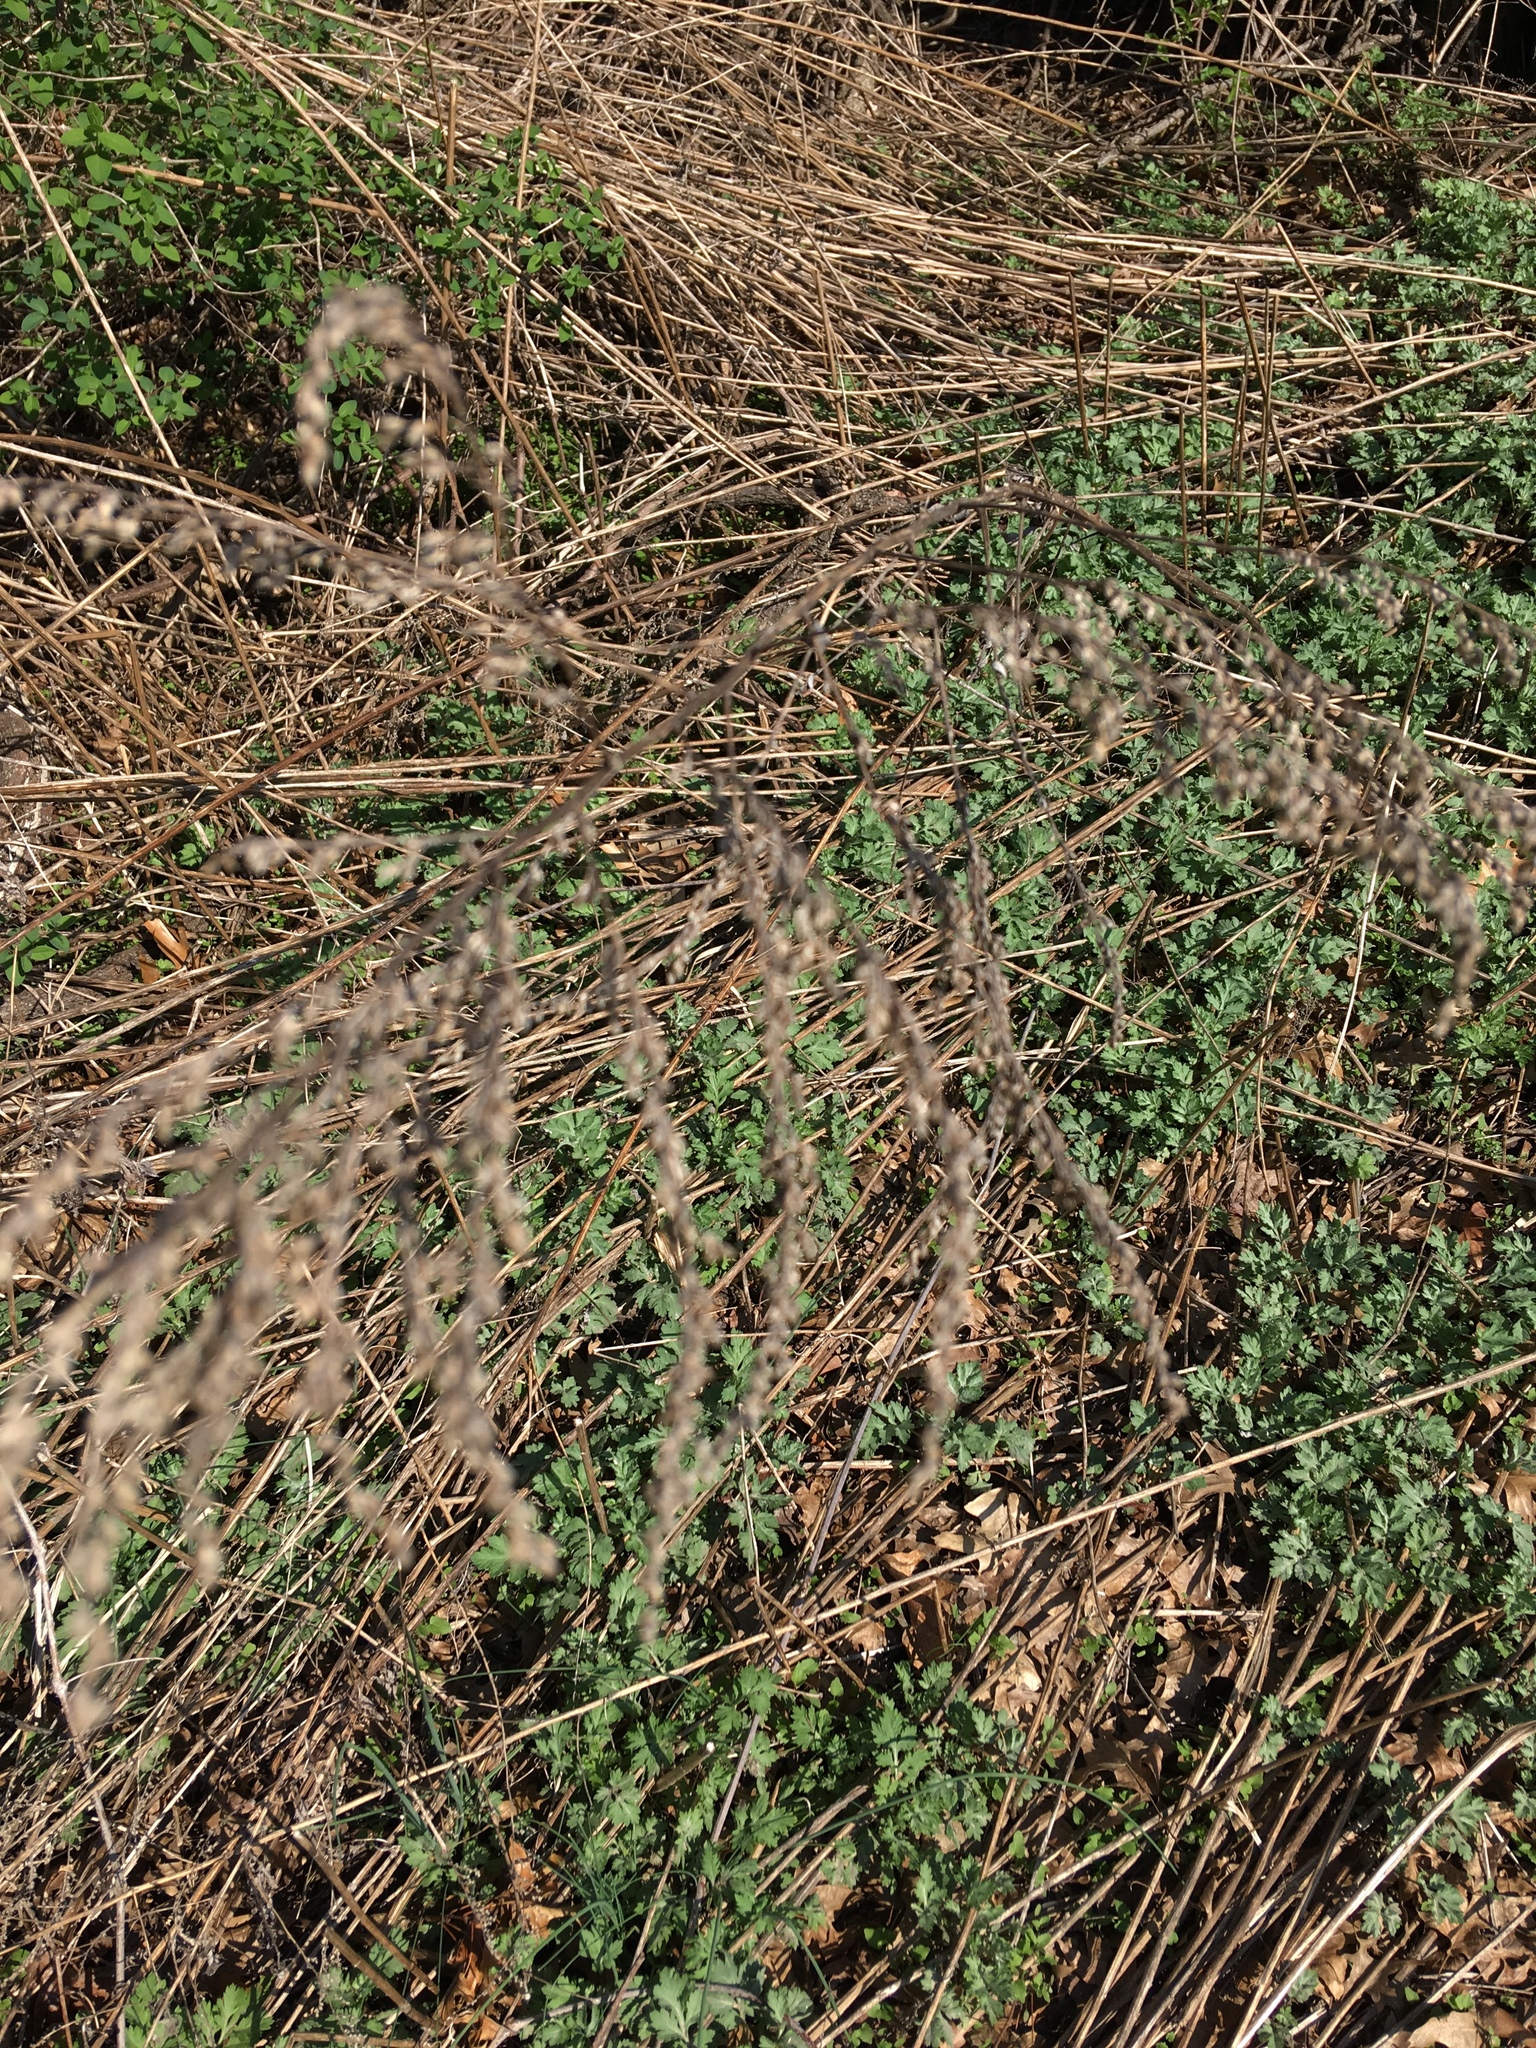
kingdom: Plantae
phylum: Tracheophyta
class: Magnoliopsida
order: Asterales
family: Asteraceae
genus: Artemisia
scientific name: Artemisia vulgaris
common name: Mugwort
